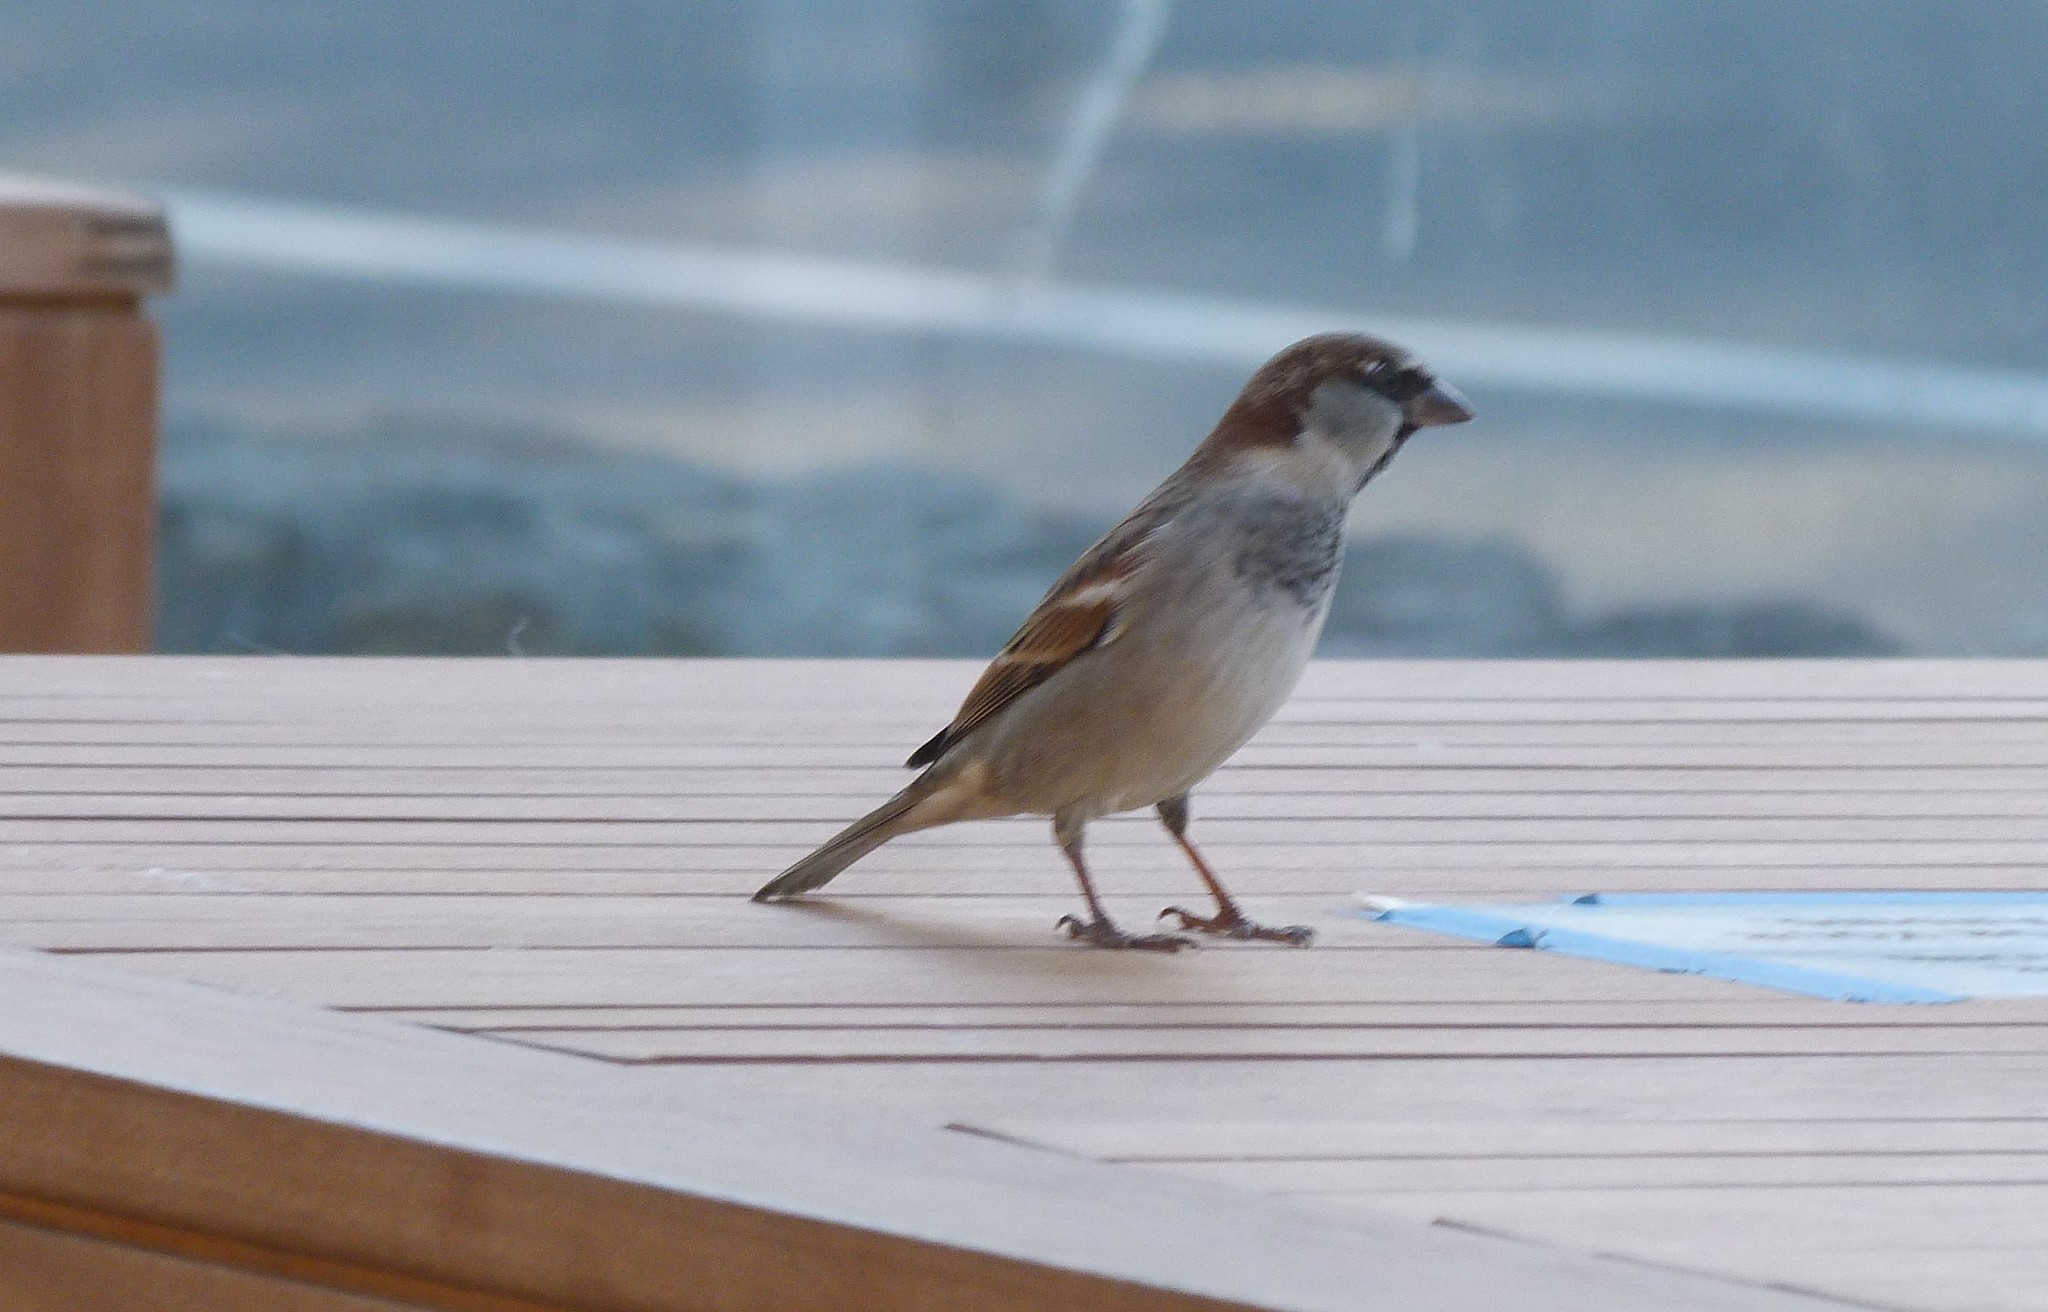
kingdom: Animalia
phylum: Chordata
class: Aves
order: Passeriformes
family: Passeridae
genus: Passer
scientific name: Passer domesticus
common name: House sparrow
